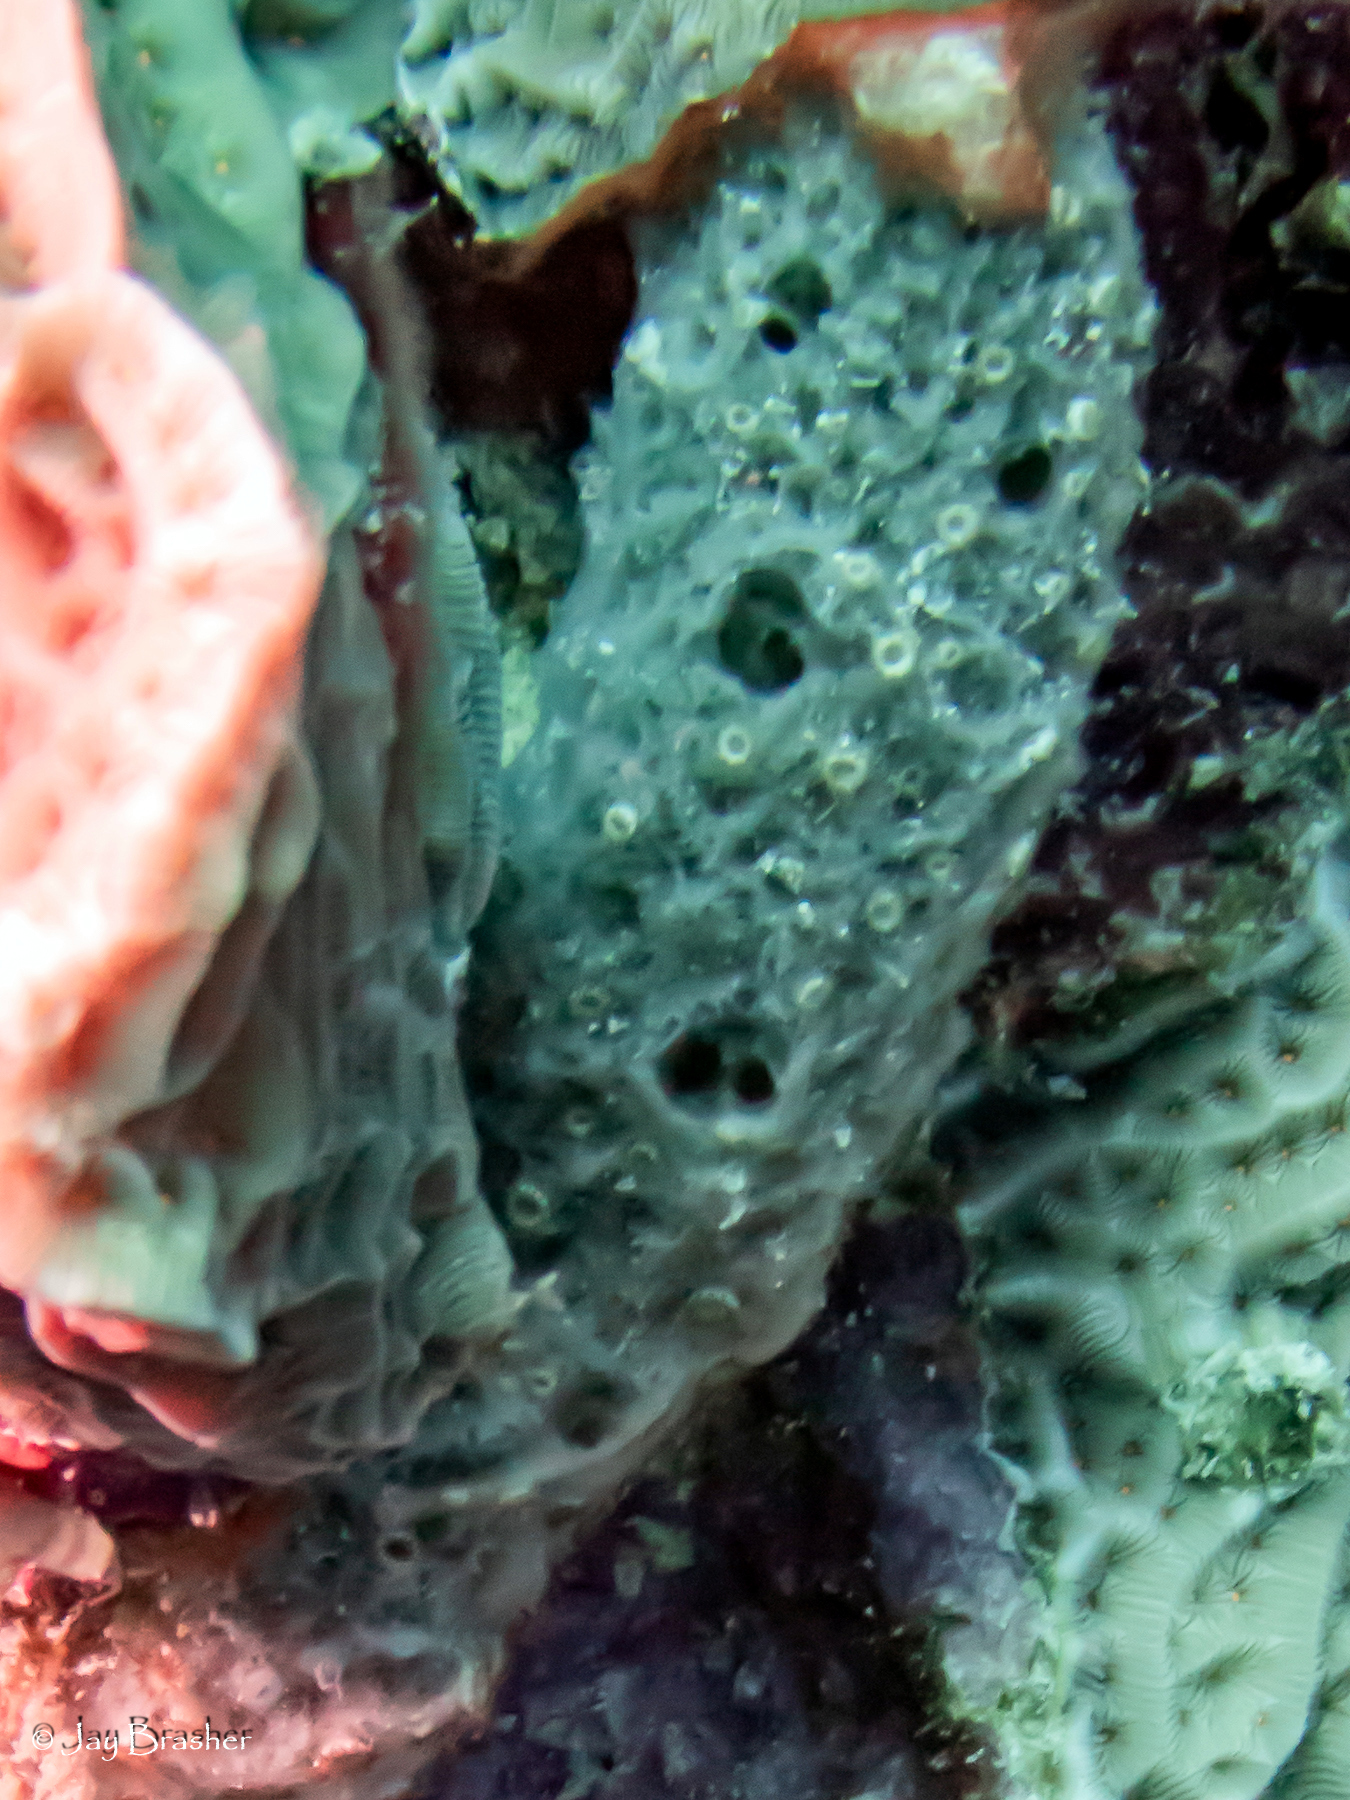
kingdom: Animalia
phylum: Porifera
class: Demospongiae
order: Haplosclerida
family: Niphatidae
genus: Niphates
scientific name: Niphates erecta
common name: Lavender rope sponge
